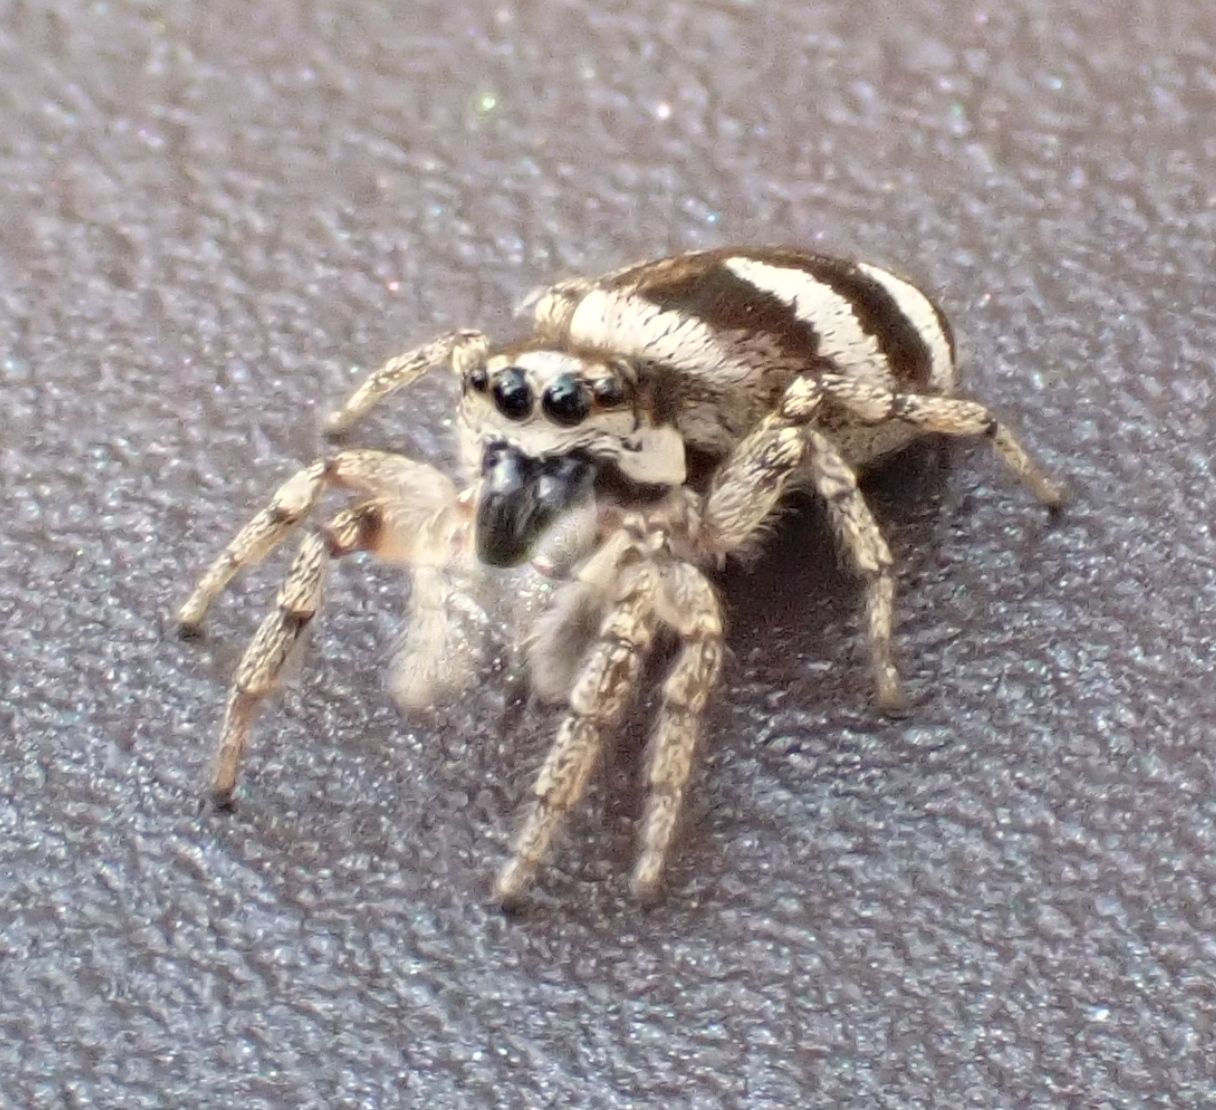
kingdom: Animalia
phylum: Arthropoda
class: Arachnida
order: Araneae
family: Salticidae
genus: Salticus
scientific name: Salticus scenicus
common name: Zebra jumper
